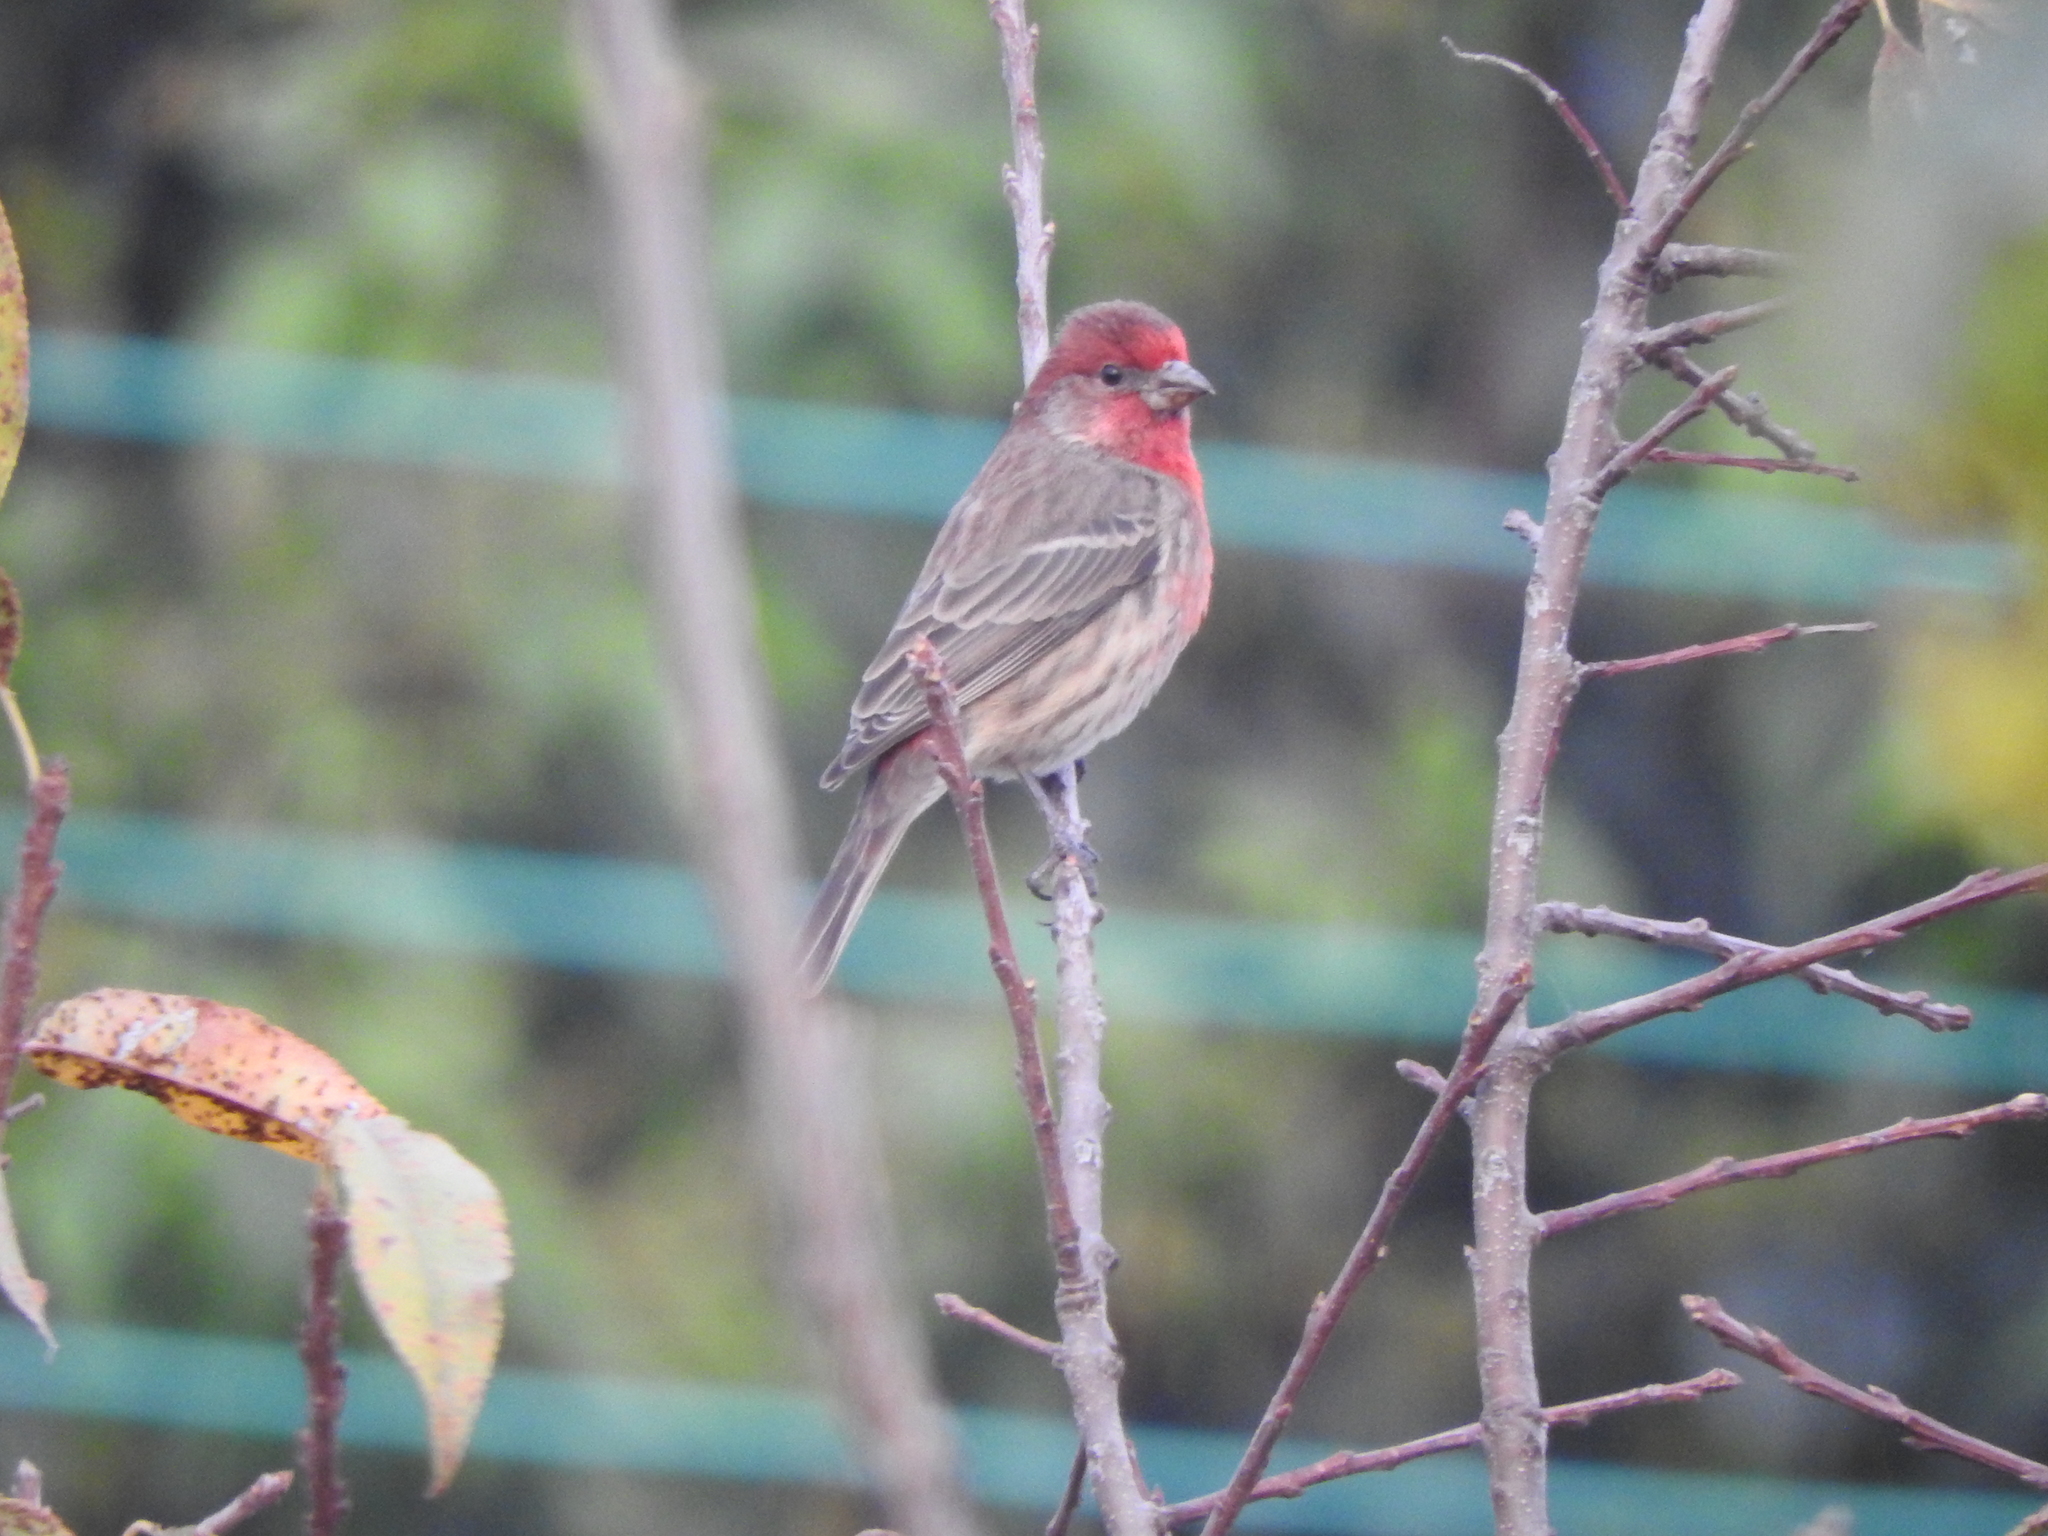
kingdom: Animalia
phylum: Chordata
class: Aves
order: Passeriformes
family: Fringillidae
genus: Haemorhous
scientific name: Haemorhous mexicanus
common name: House finch
